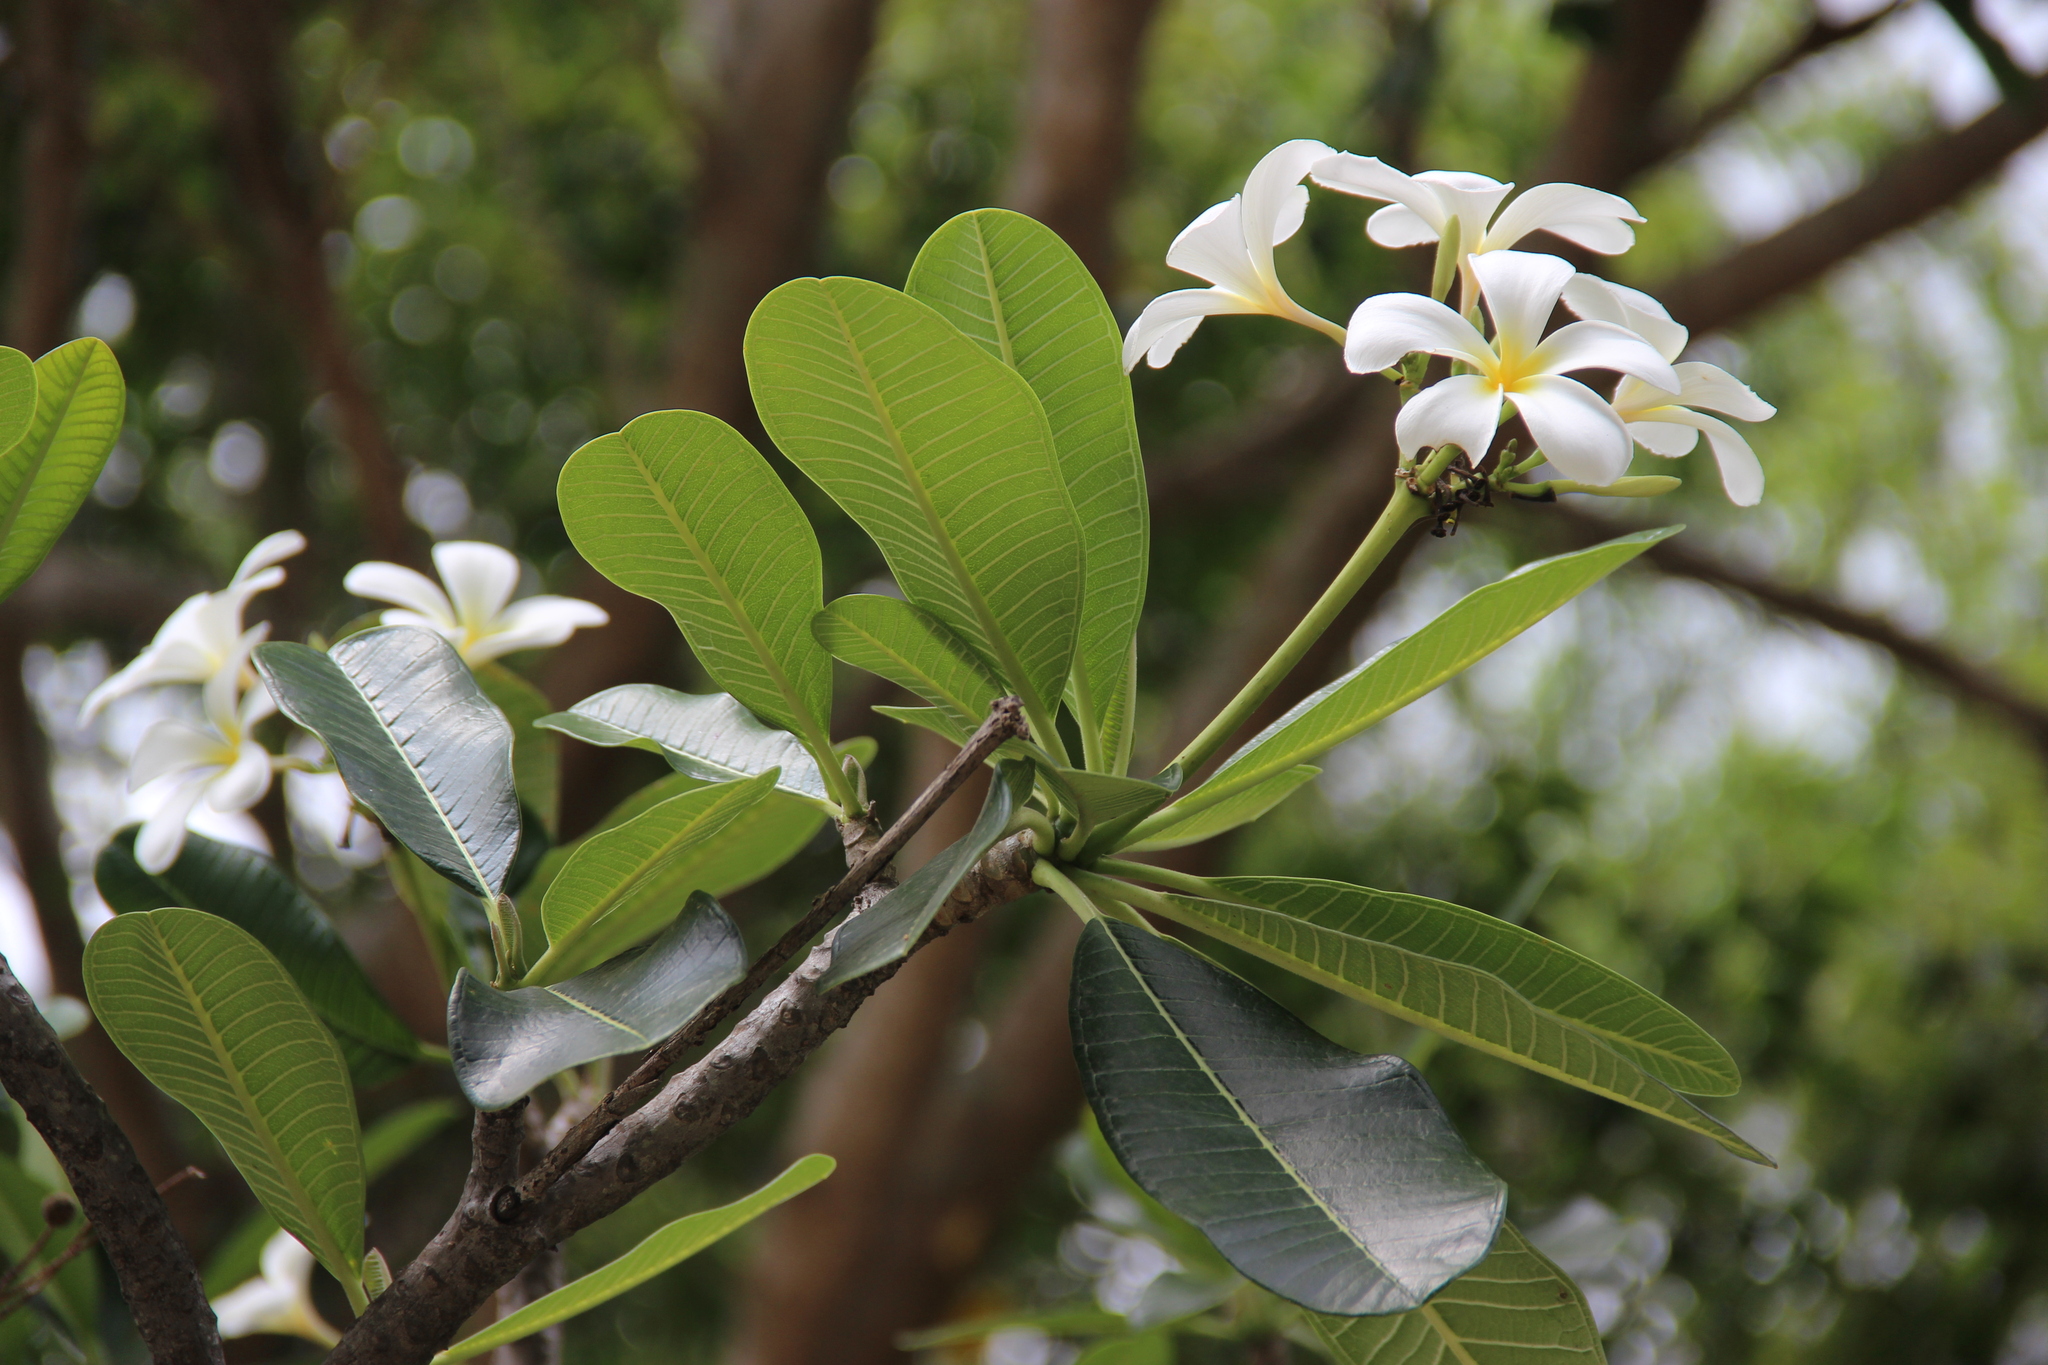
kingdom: Plantae
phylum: Tracheophyta
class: Magnoliopsida
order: Gentianales
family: Apocynaceae
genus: Plumeria
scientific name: Plumeria obtusa
